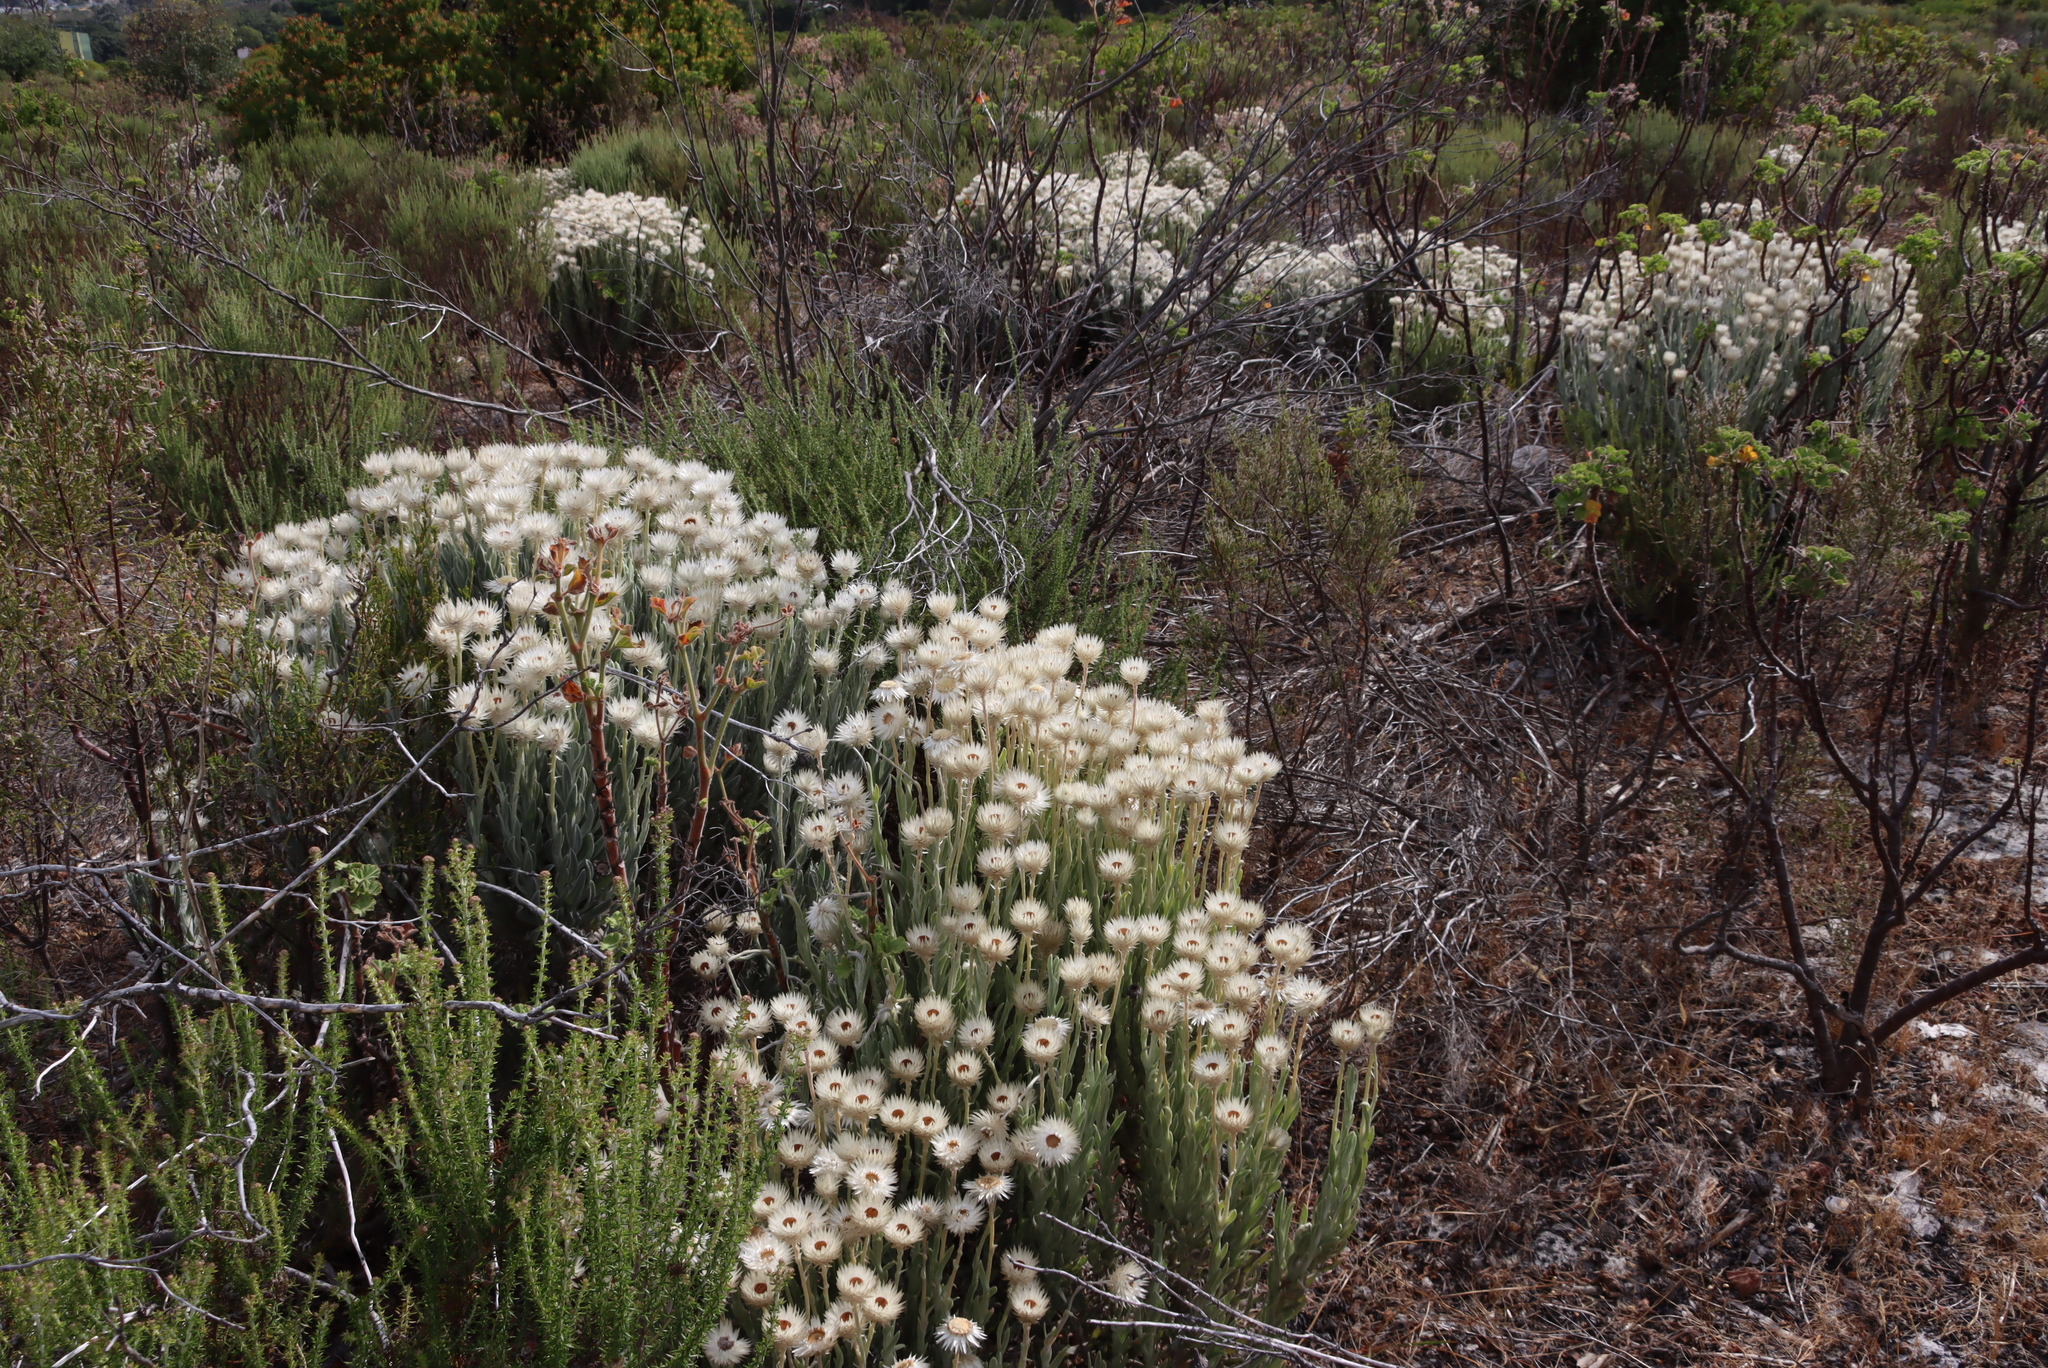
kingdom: Plantae
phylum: Tracheophyta
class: Magnoliopsida
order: Asterales
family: Asteraceae
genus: Syncarpha
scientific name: Syncarpha vestita
